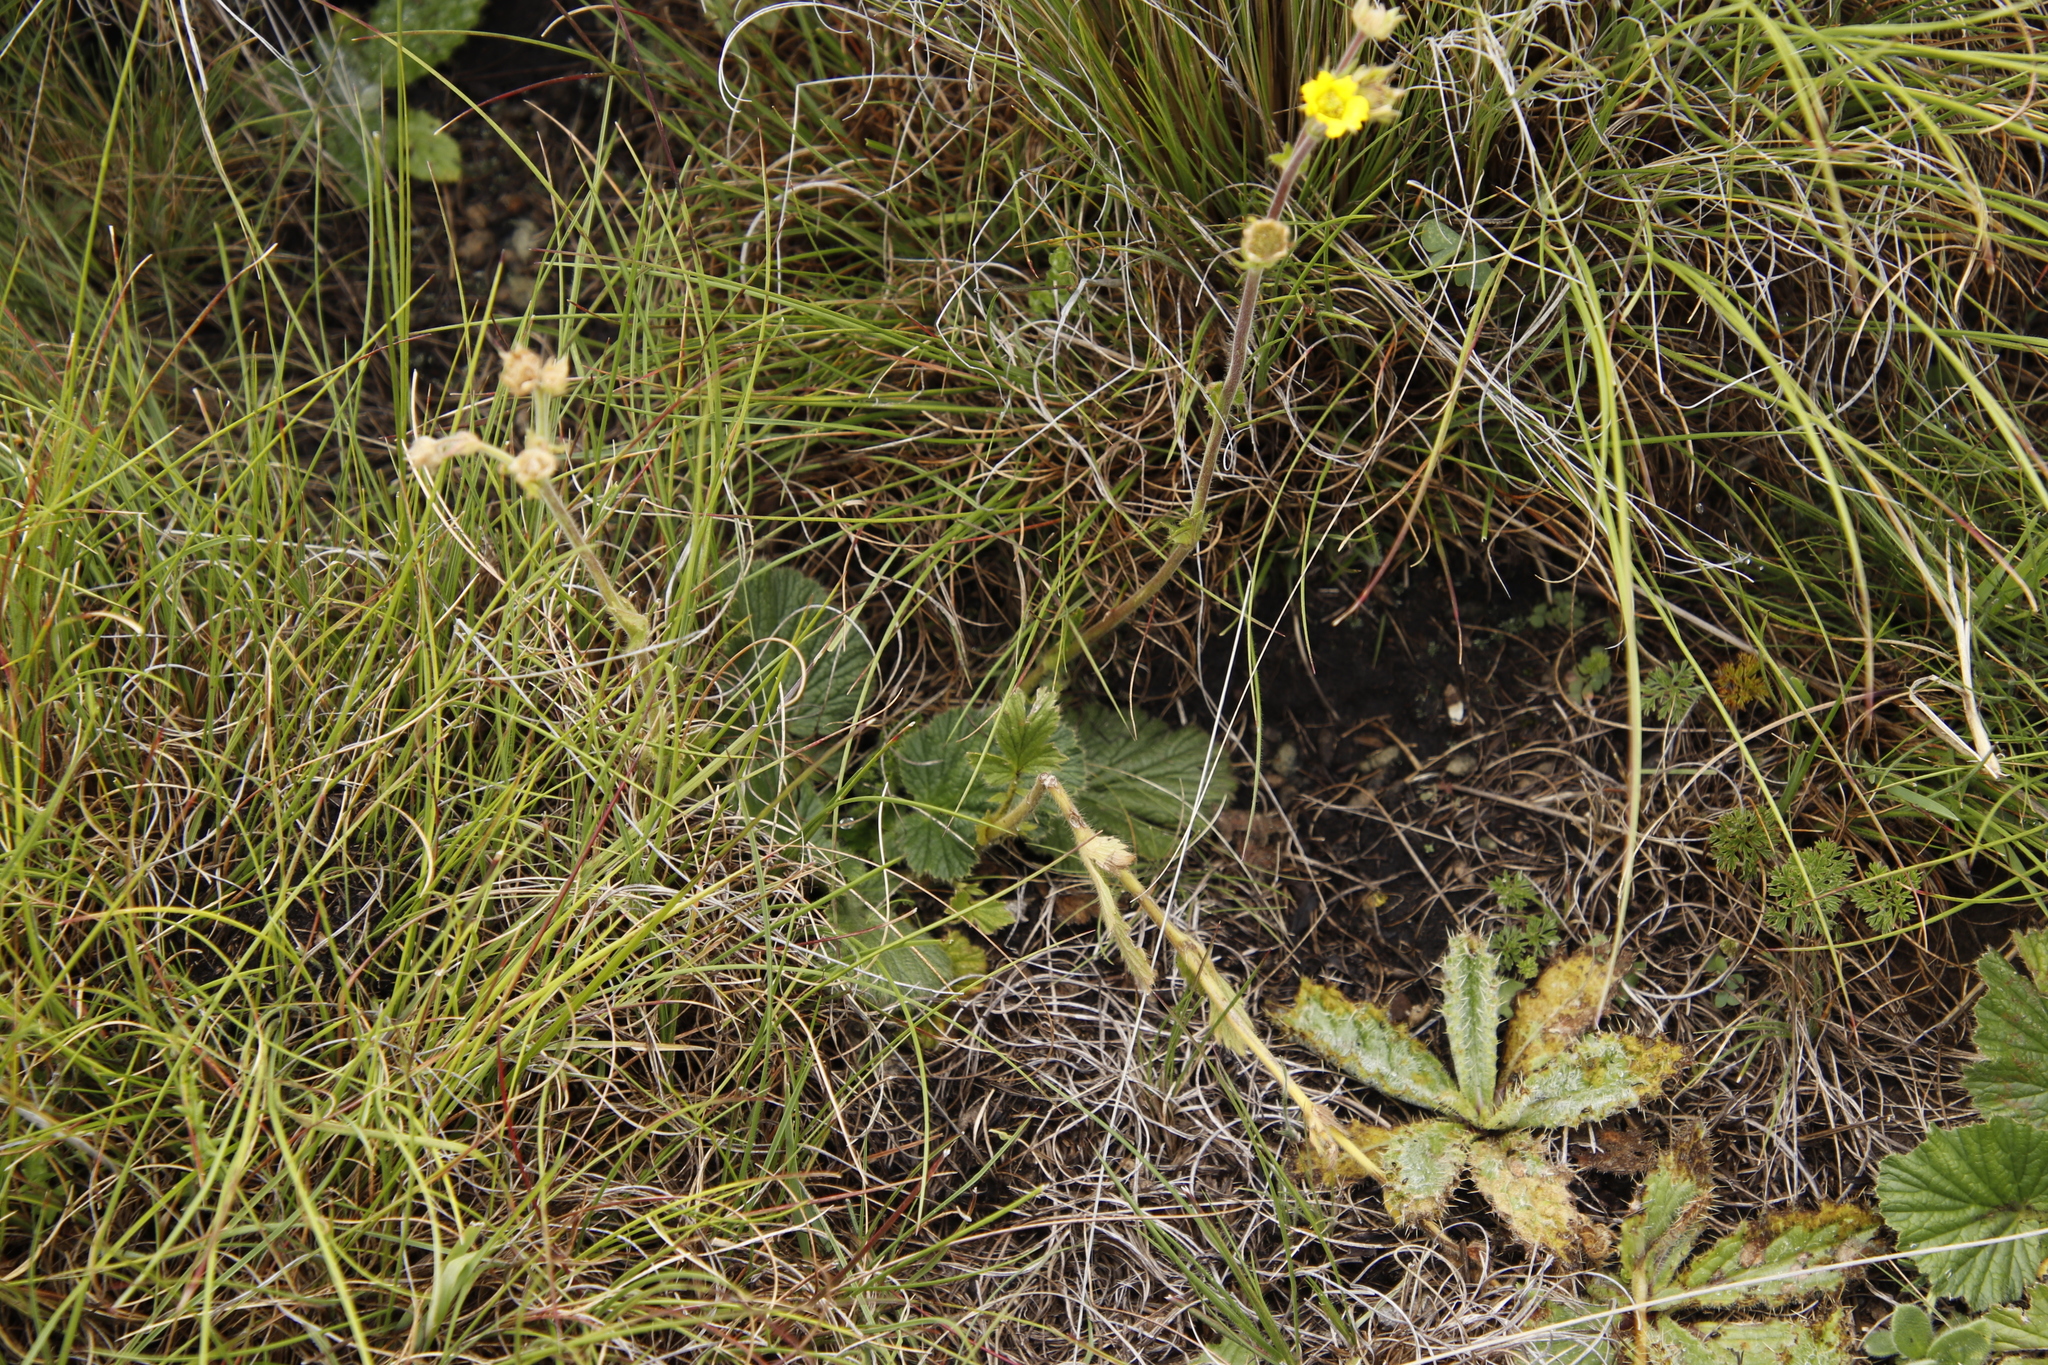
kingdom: Plantae
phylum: Tracheophyta
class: Magnoliopsida
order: Rosales
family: Rosaceae
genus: Geum
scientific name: Geum capense
